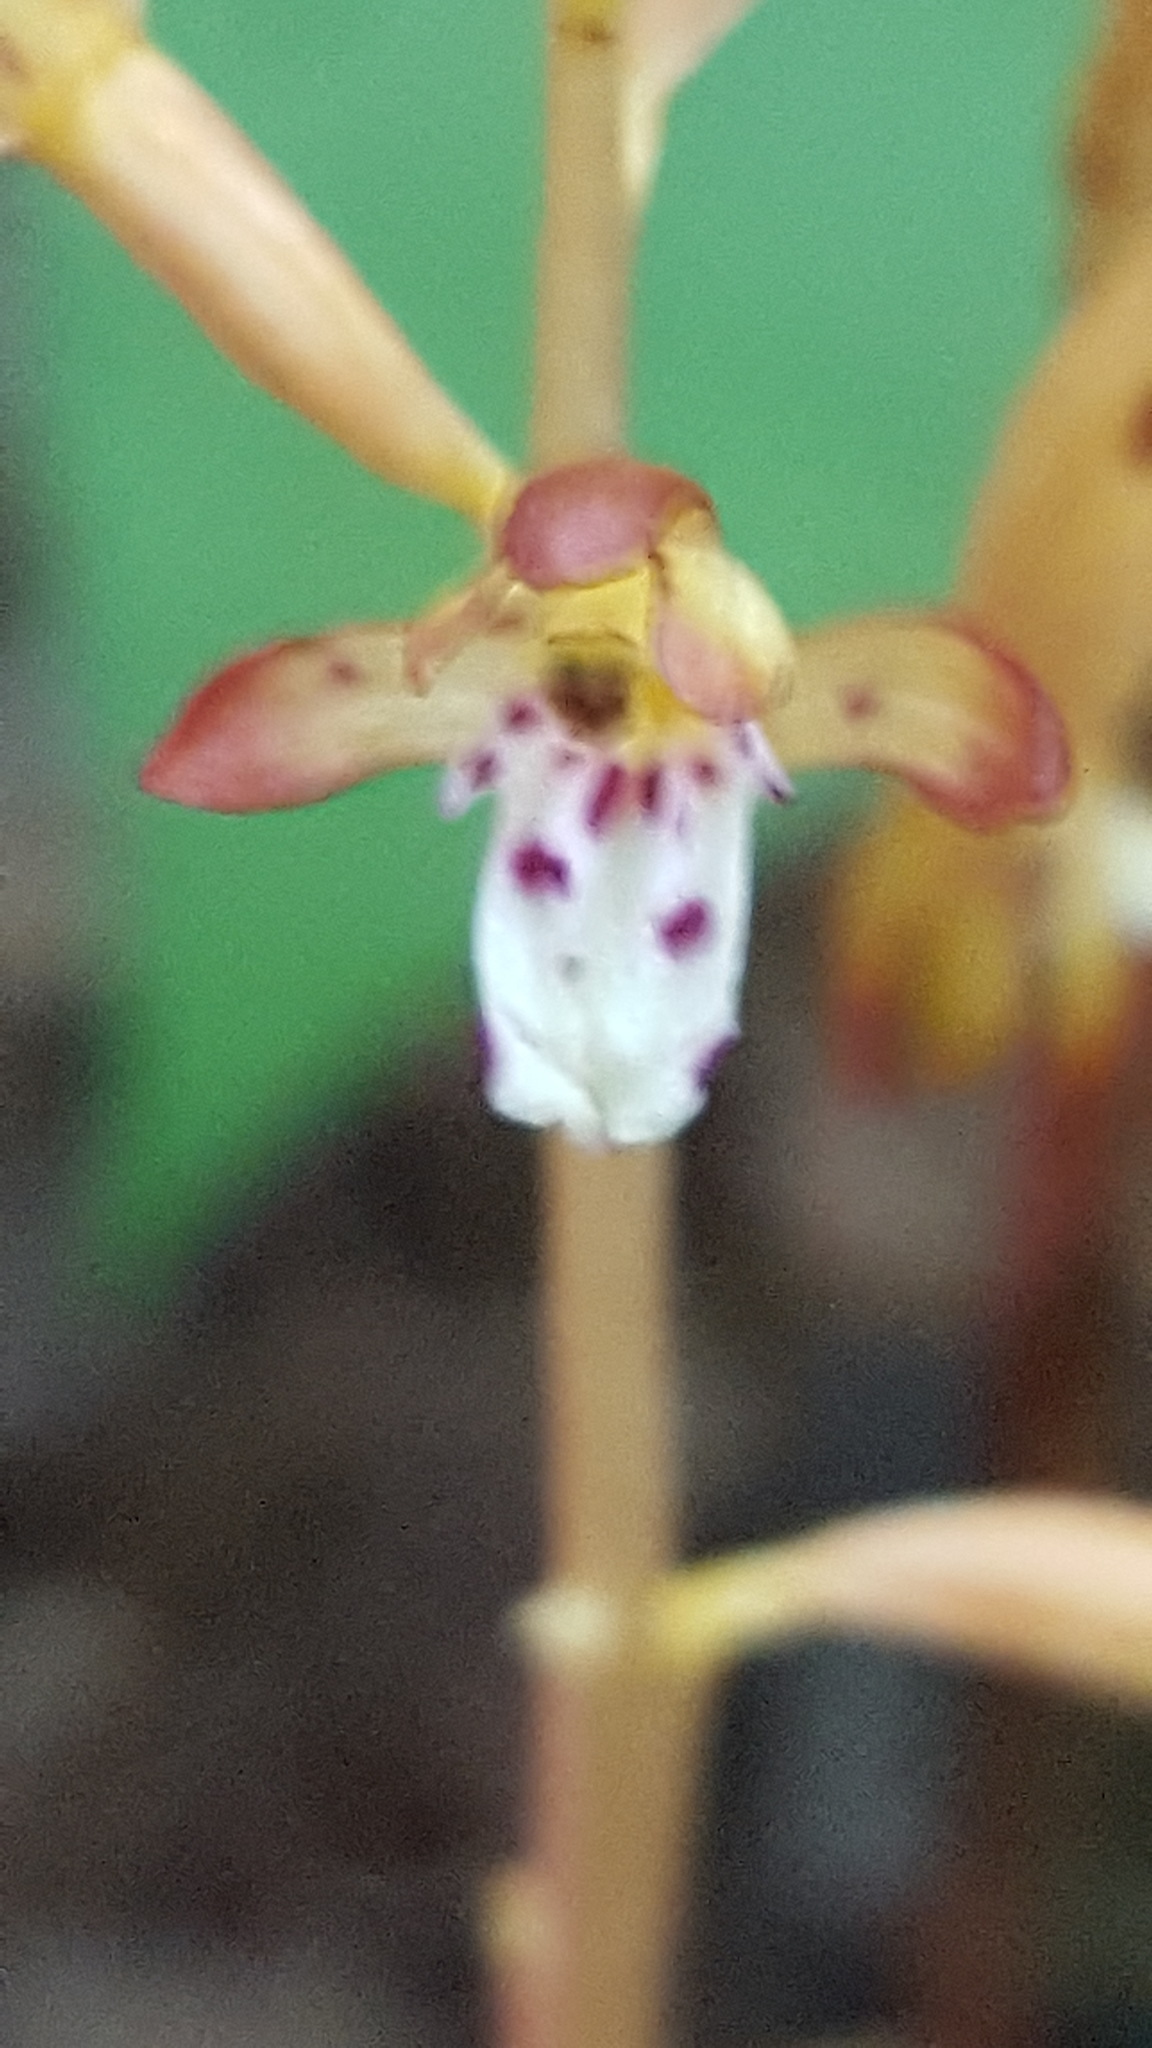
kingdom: Plantae
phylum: Tracheophyta
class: Liliopsida
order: Asparagales
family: Orchidaceae
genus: Corallorhiza
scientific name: Corallorhiza maculata
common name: Spotted coralroot
